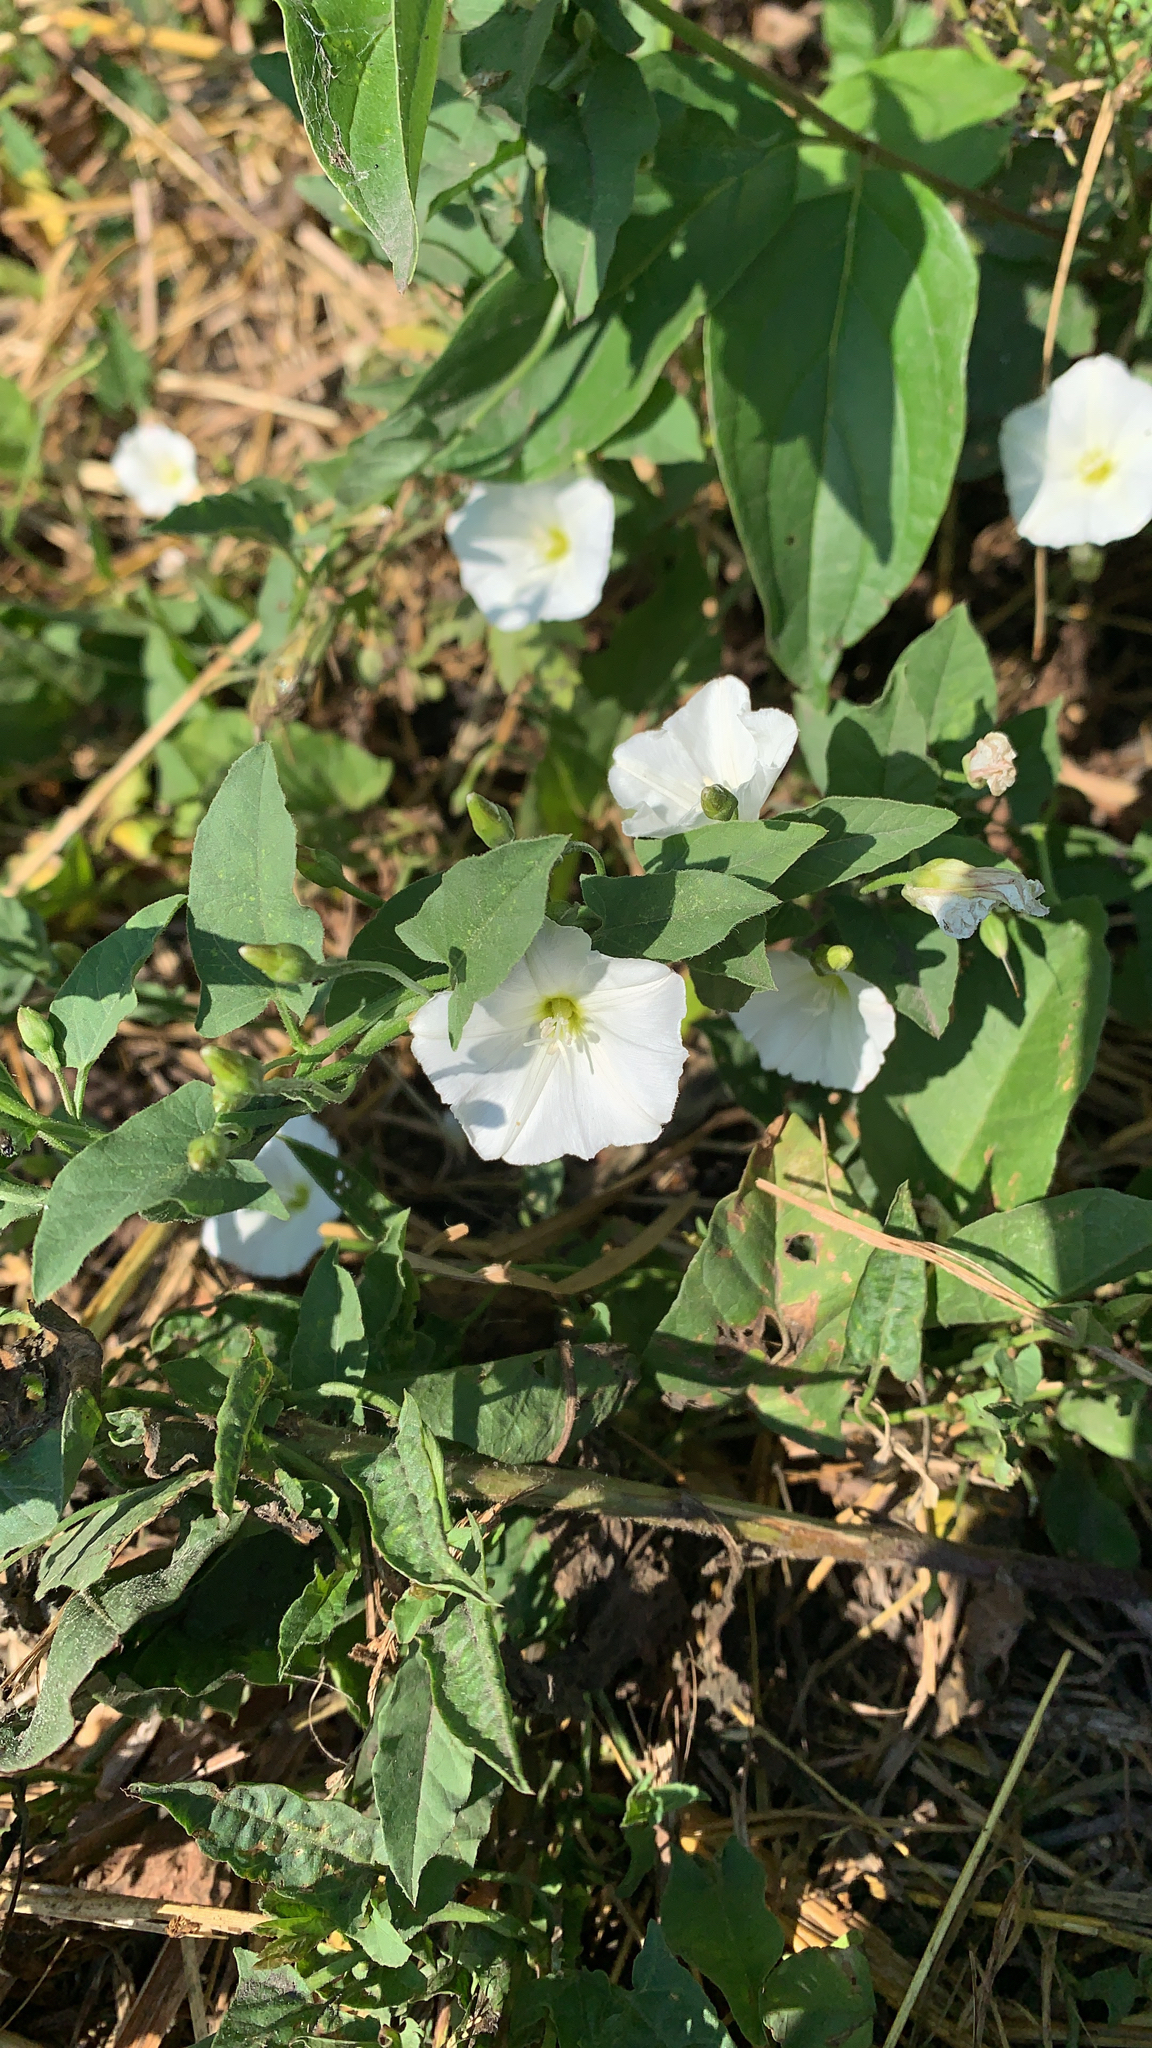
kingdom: Plantae
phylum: Tracheophyta
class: Magnoliopsida
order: Solanales
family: Convolvulaceae
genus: Convolvulus
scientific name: Convolvulus arvensis
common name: Field bindweed
